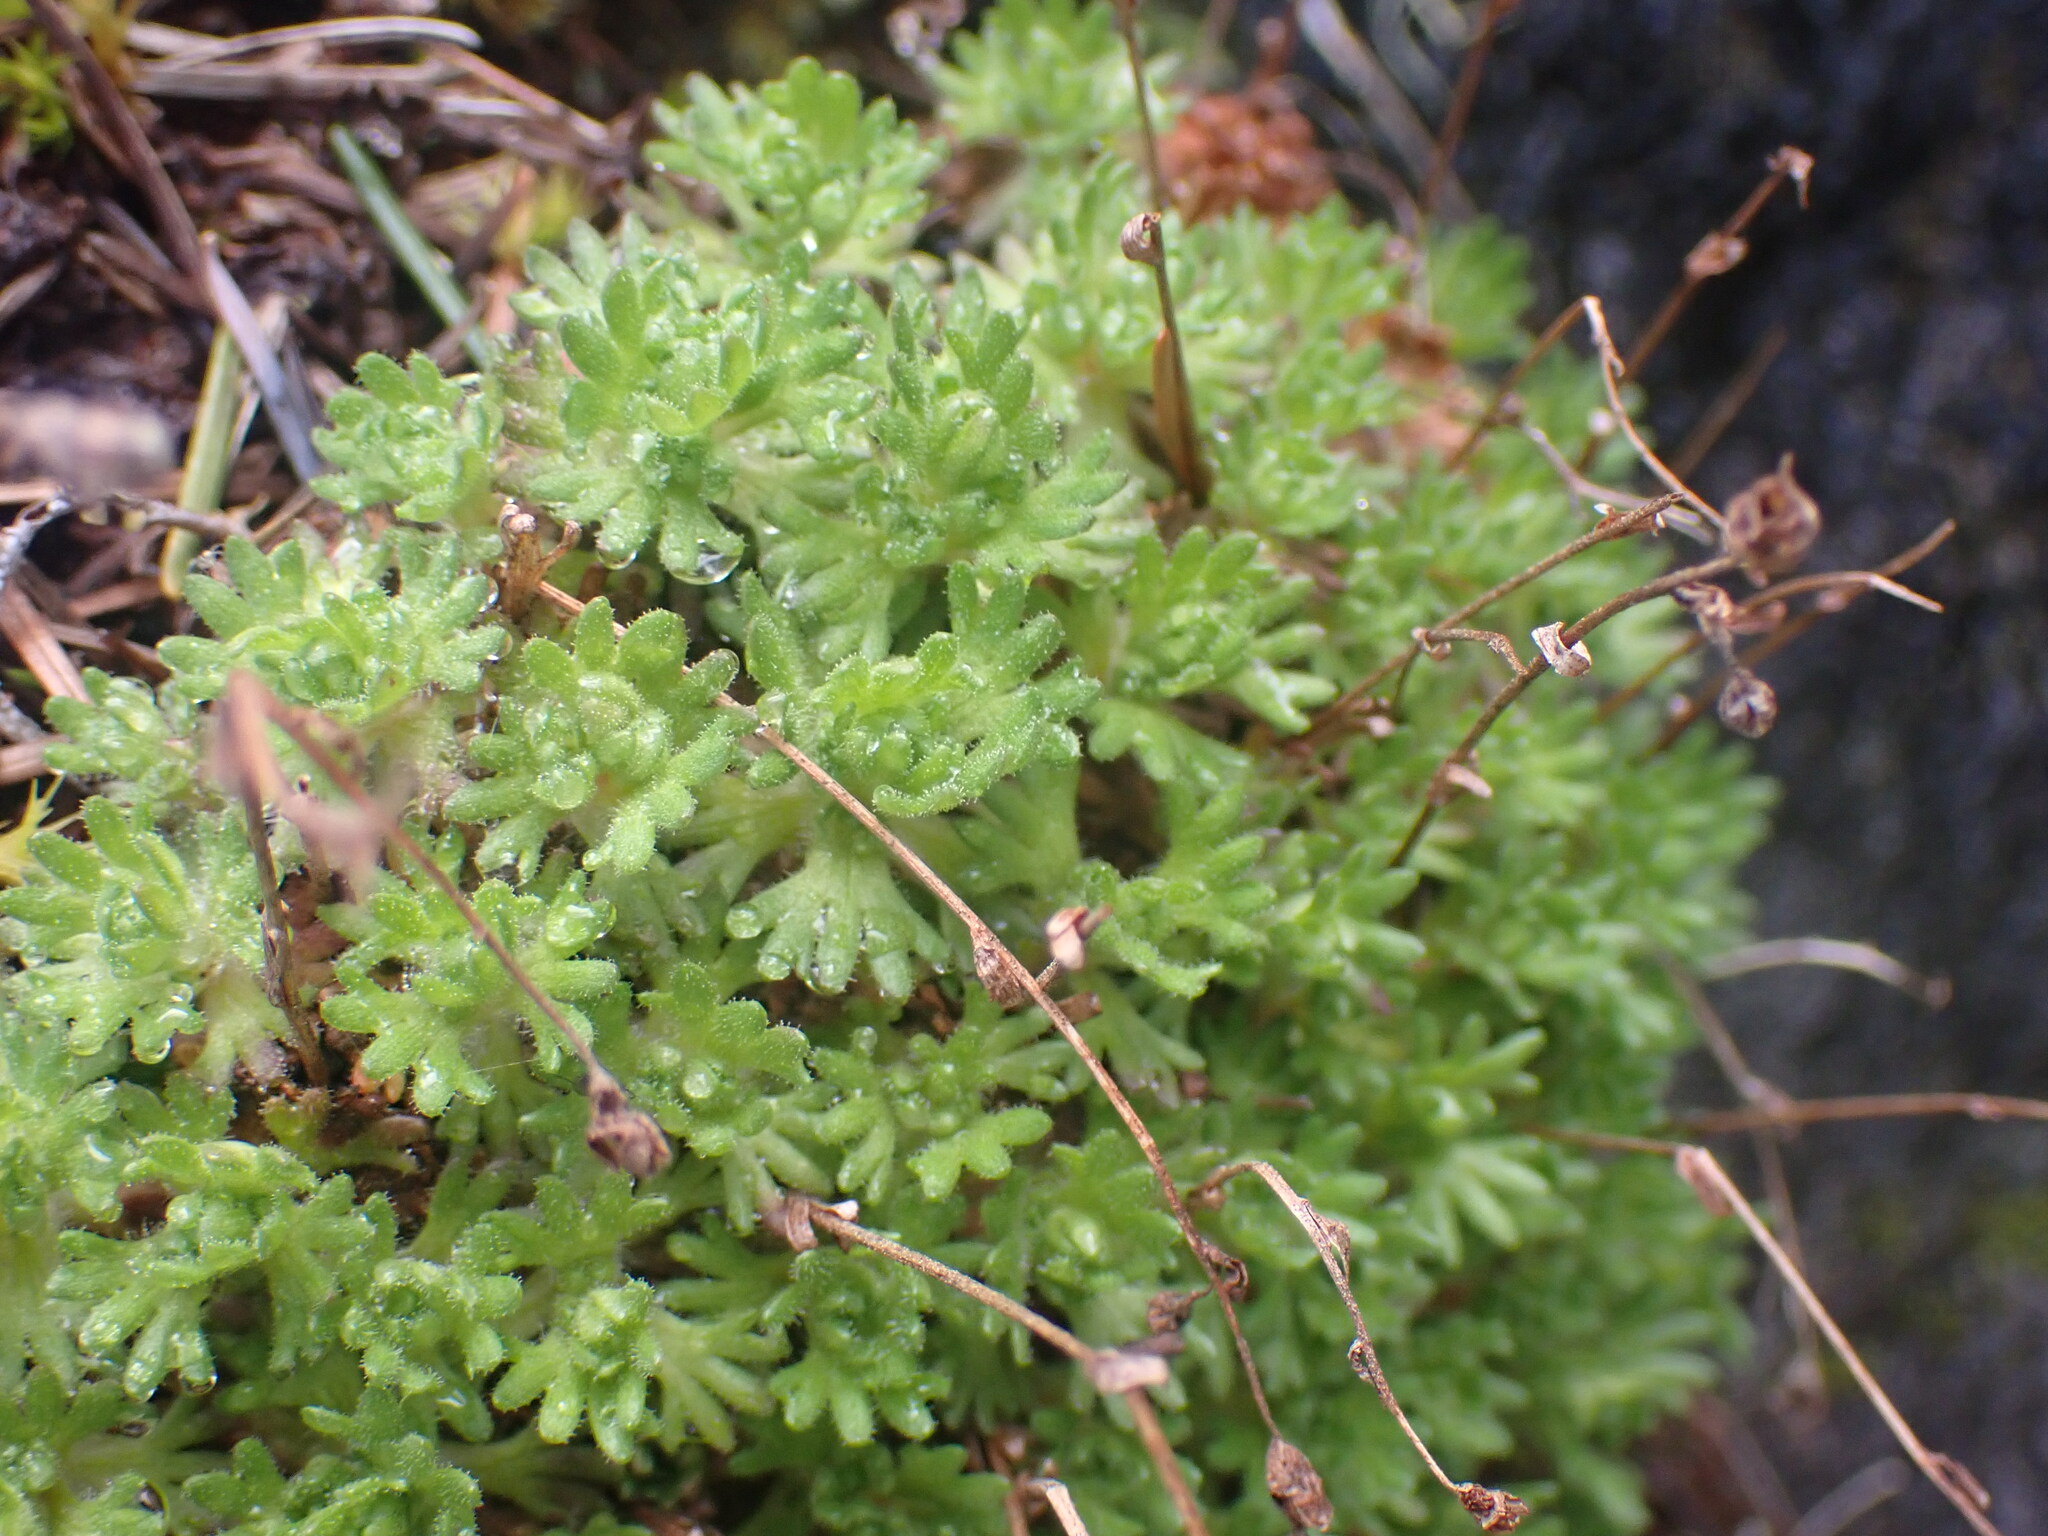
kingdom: Plantae
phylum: Tracheophyta
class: Magnoliopsida
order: Saxifragales
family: Saxifragaceae
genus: Saxifraga
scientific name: Saxifraga cespitosa
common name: Tufted saxifrage
